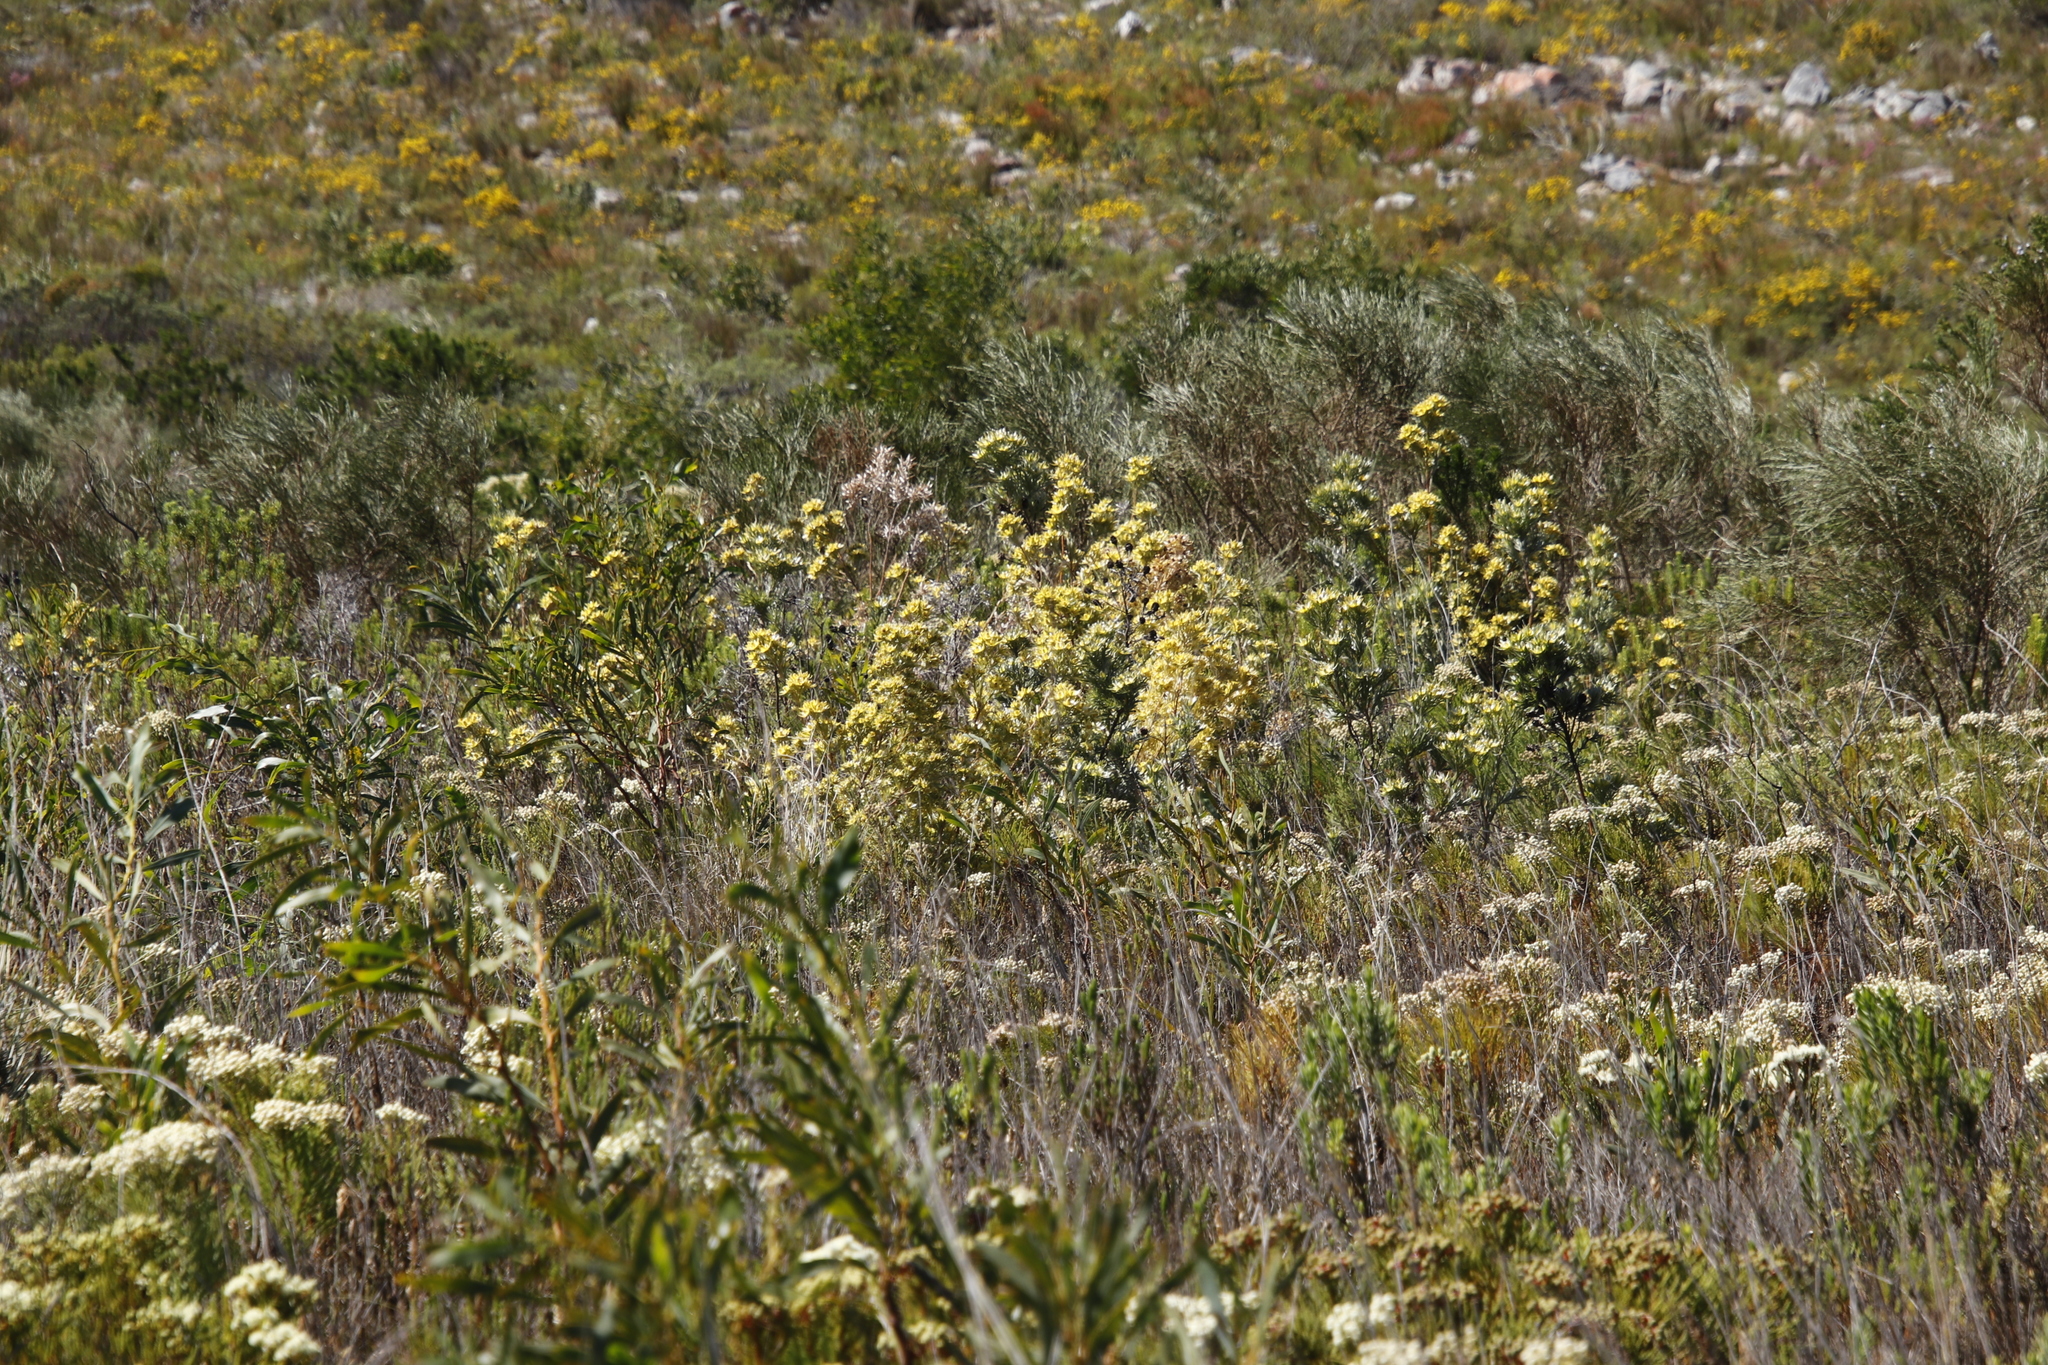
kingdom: Plantae
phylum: Tracheophyta
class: Magnoliopsida
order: Proteales
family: Proteaceae
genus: Leucadendron
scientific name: Leucadendron floridum
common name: Flats conebush
